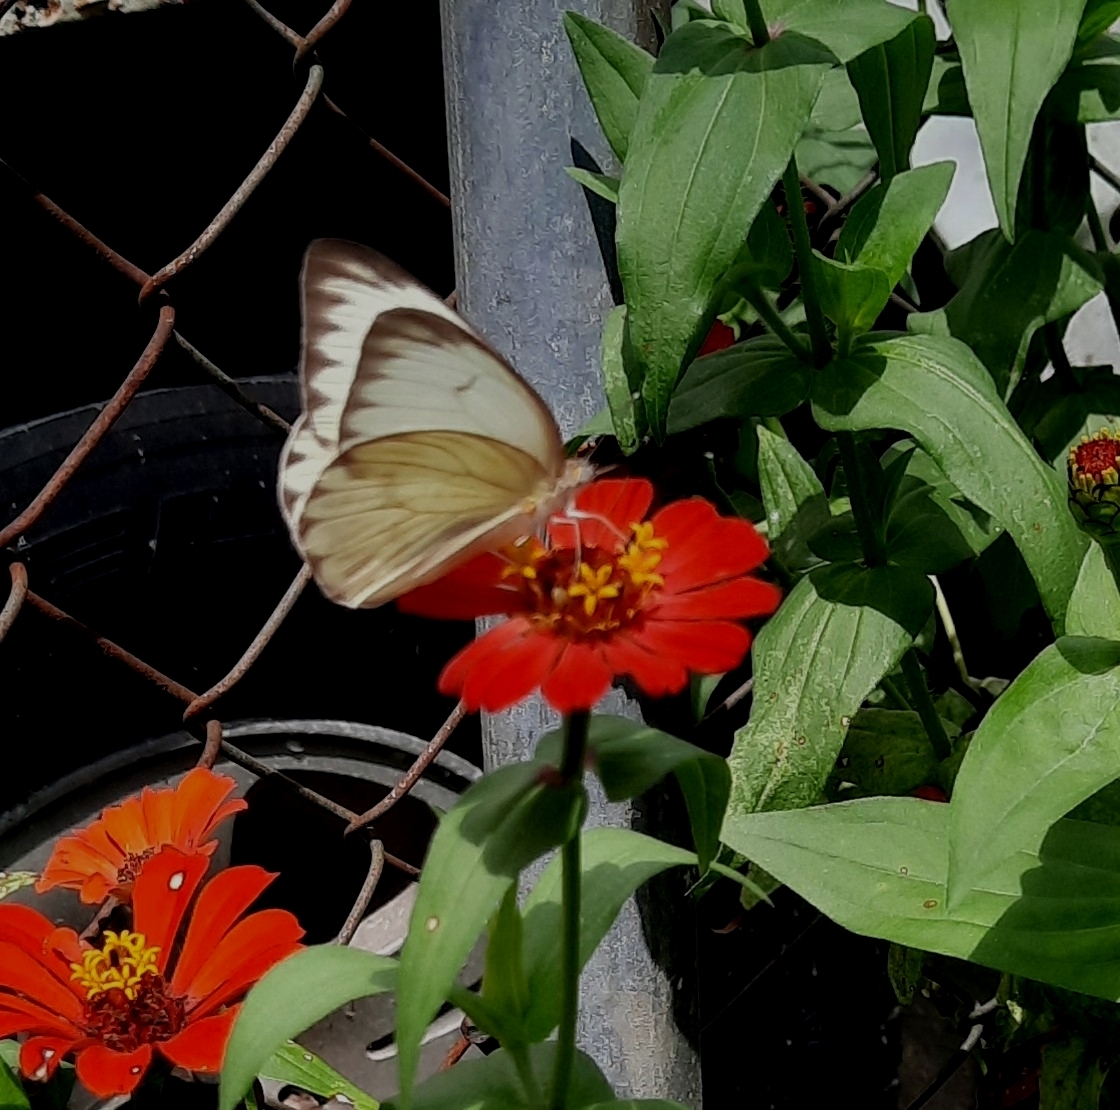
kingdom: Animalia
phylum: Arthropoda
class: Insecta
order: Lepidoptera
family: Pieridae
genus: Ascia
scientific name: Ascia monuste
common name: Great southern white
